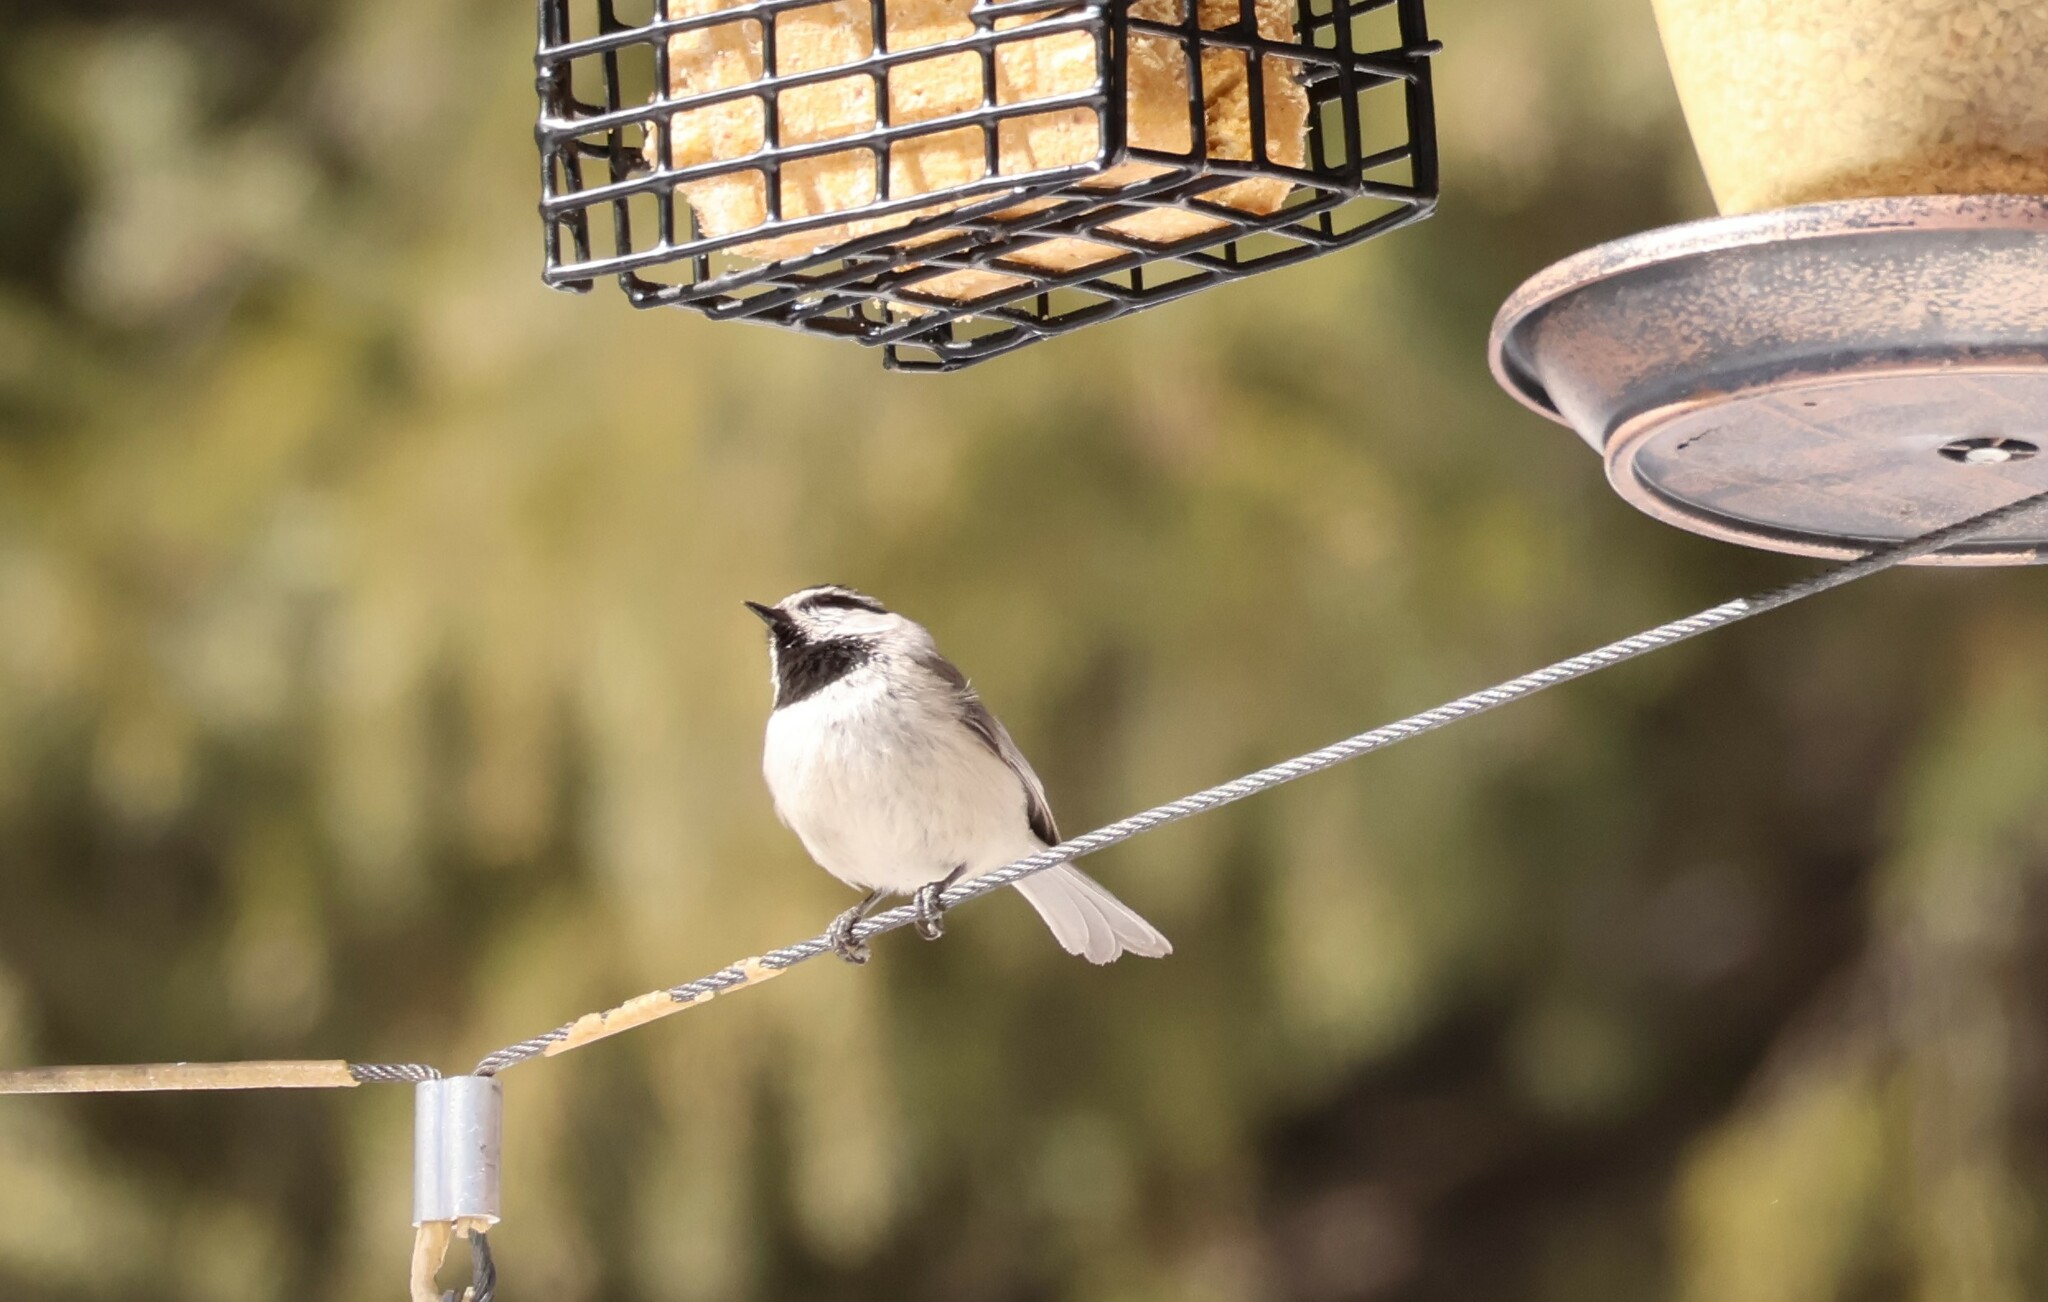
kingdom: Animalia
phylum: Chordata
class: Aves
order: Passeriformes
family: Paridae
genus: Poecile
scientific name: Poecile gambeli
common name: Mountain chickadee
